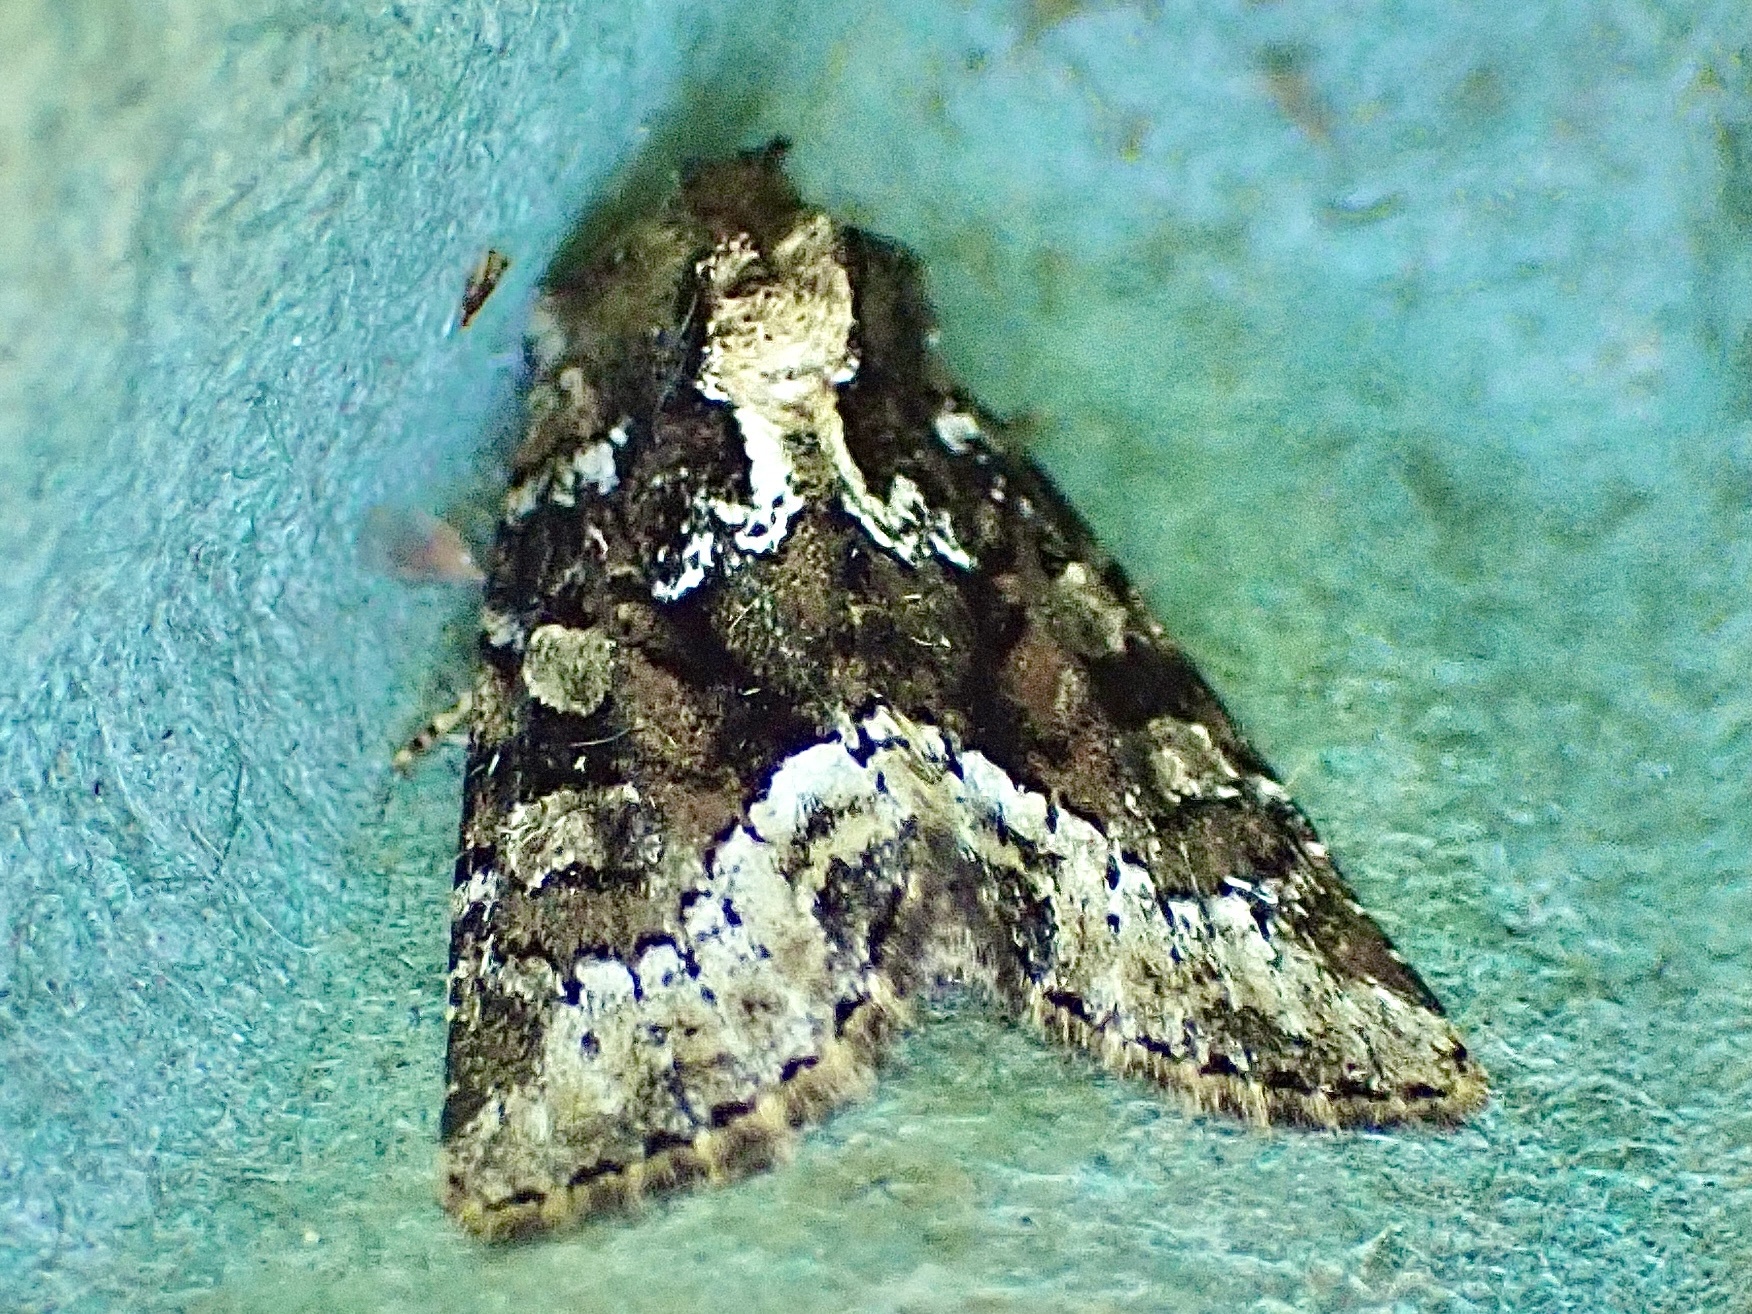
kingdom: Animalia
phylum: Arthropoda
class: Insecta
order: Lepidoptera
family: Noctuidae
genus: Oligia
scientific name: Oligia strigilis
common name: Marbled minor
